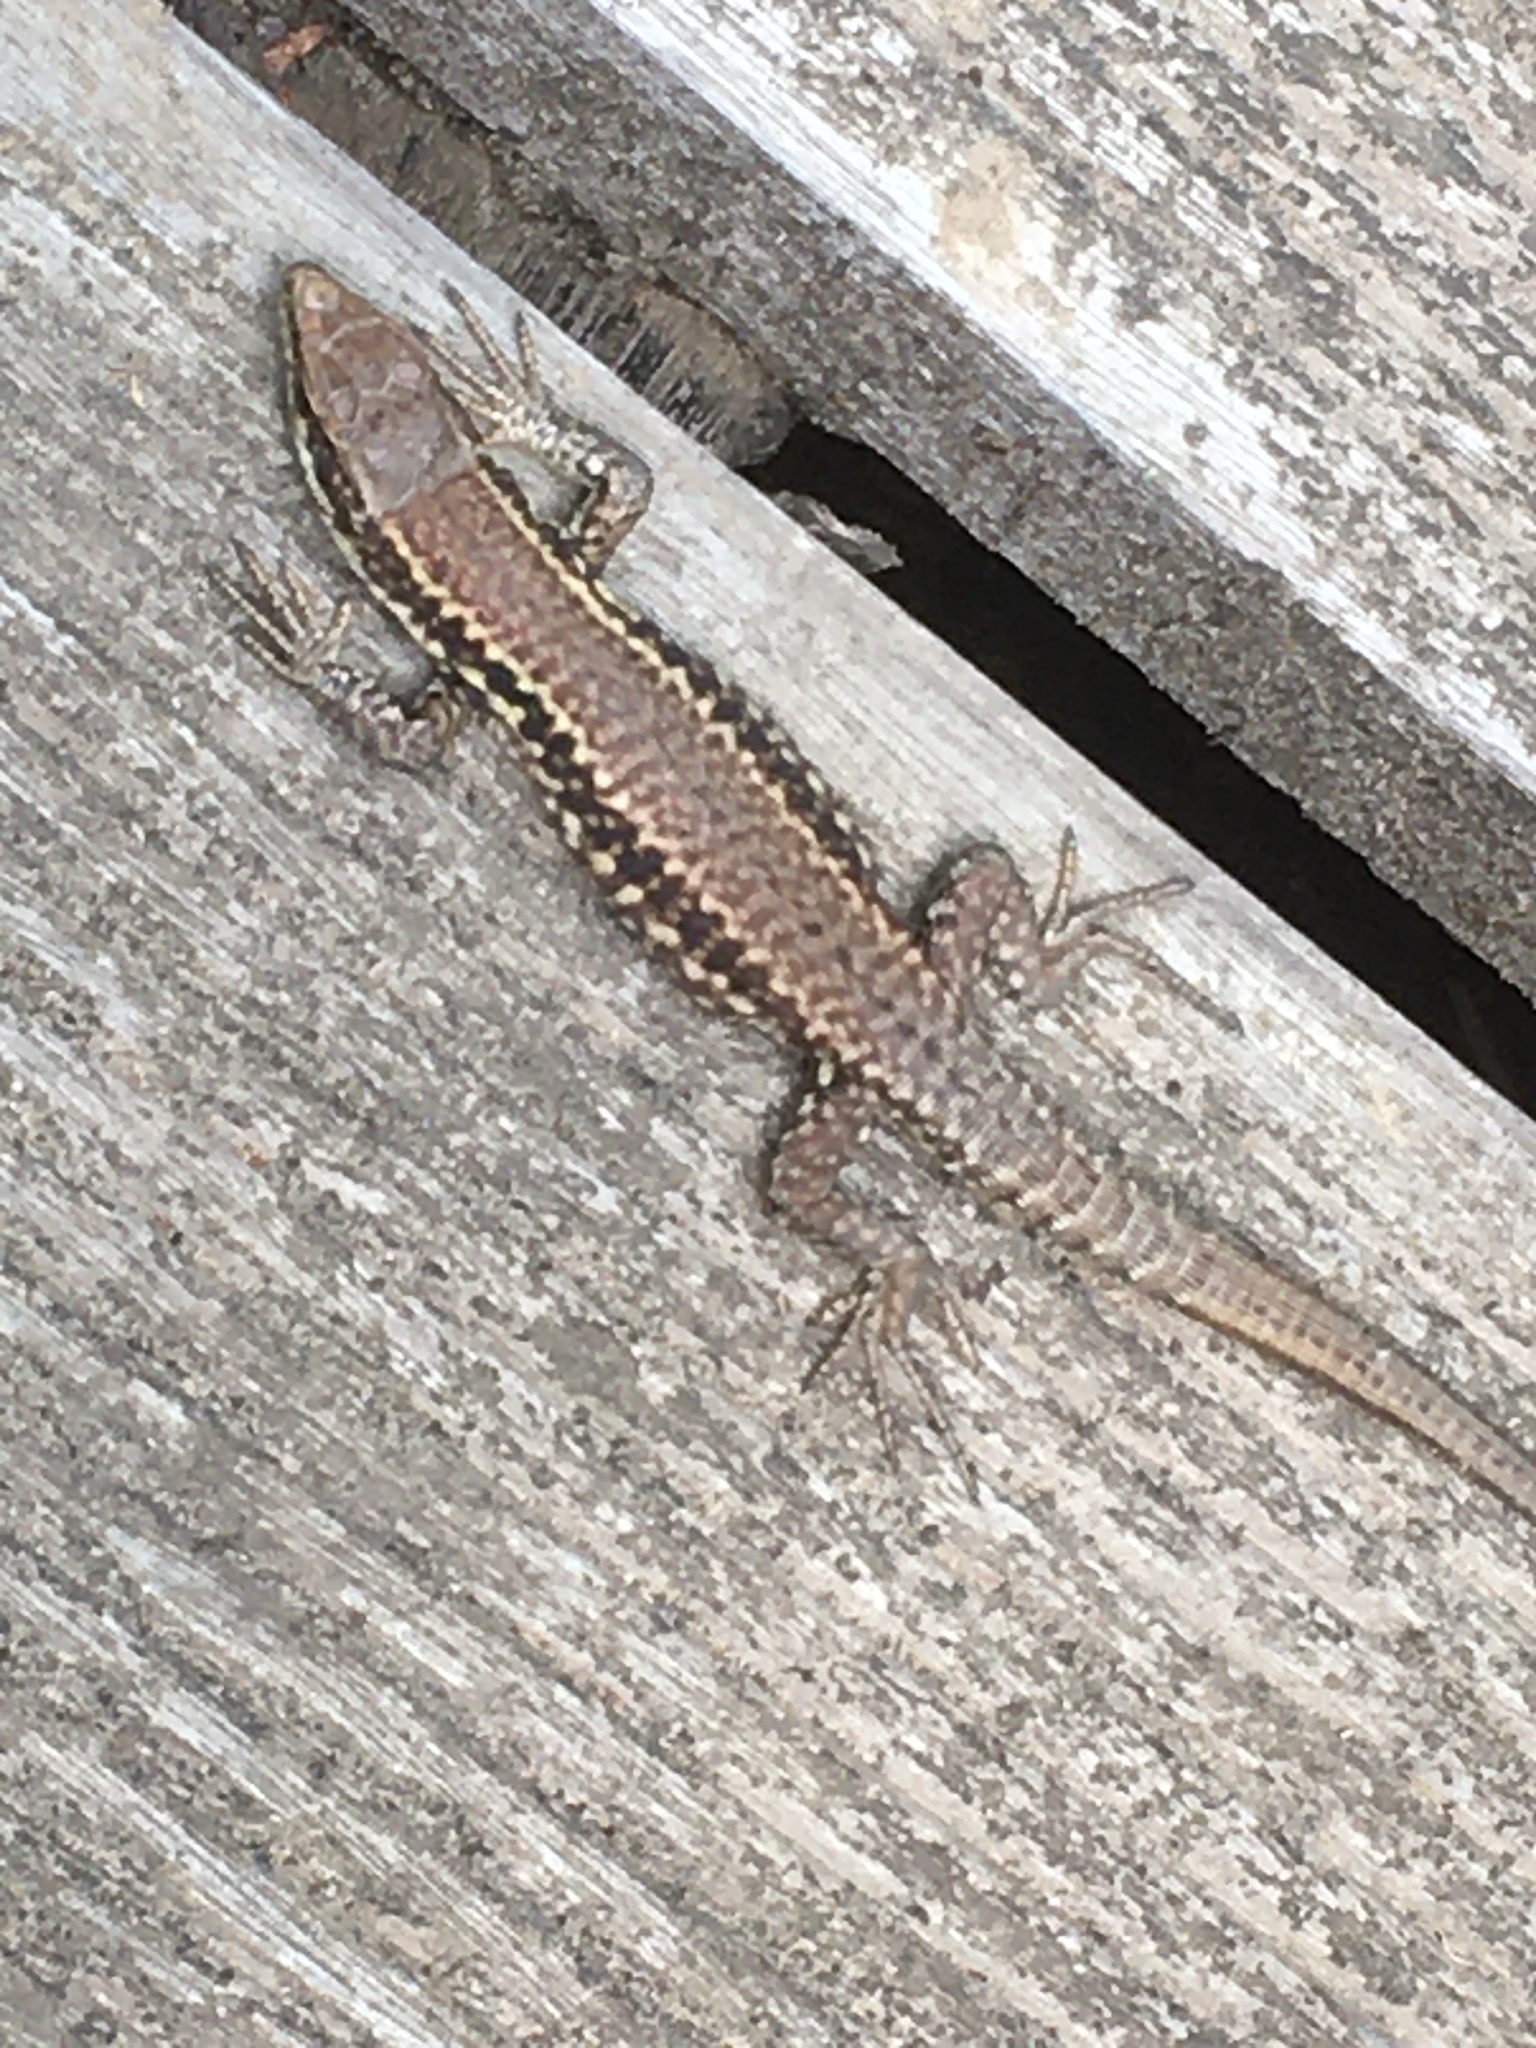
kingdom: Animalia
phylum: Chordata
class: Squamata
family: Lacertidae
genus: Podarcis
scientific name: Podarcis muralis
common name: Common wall lizard
